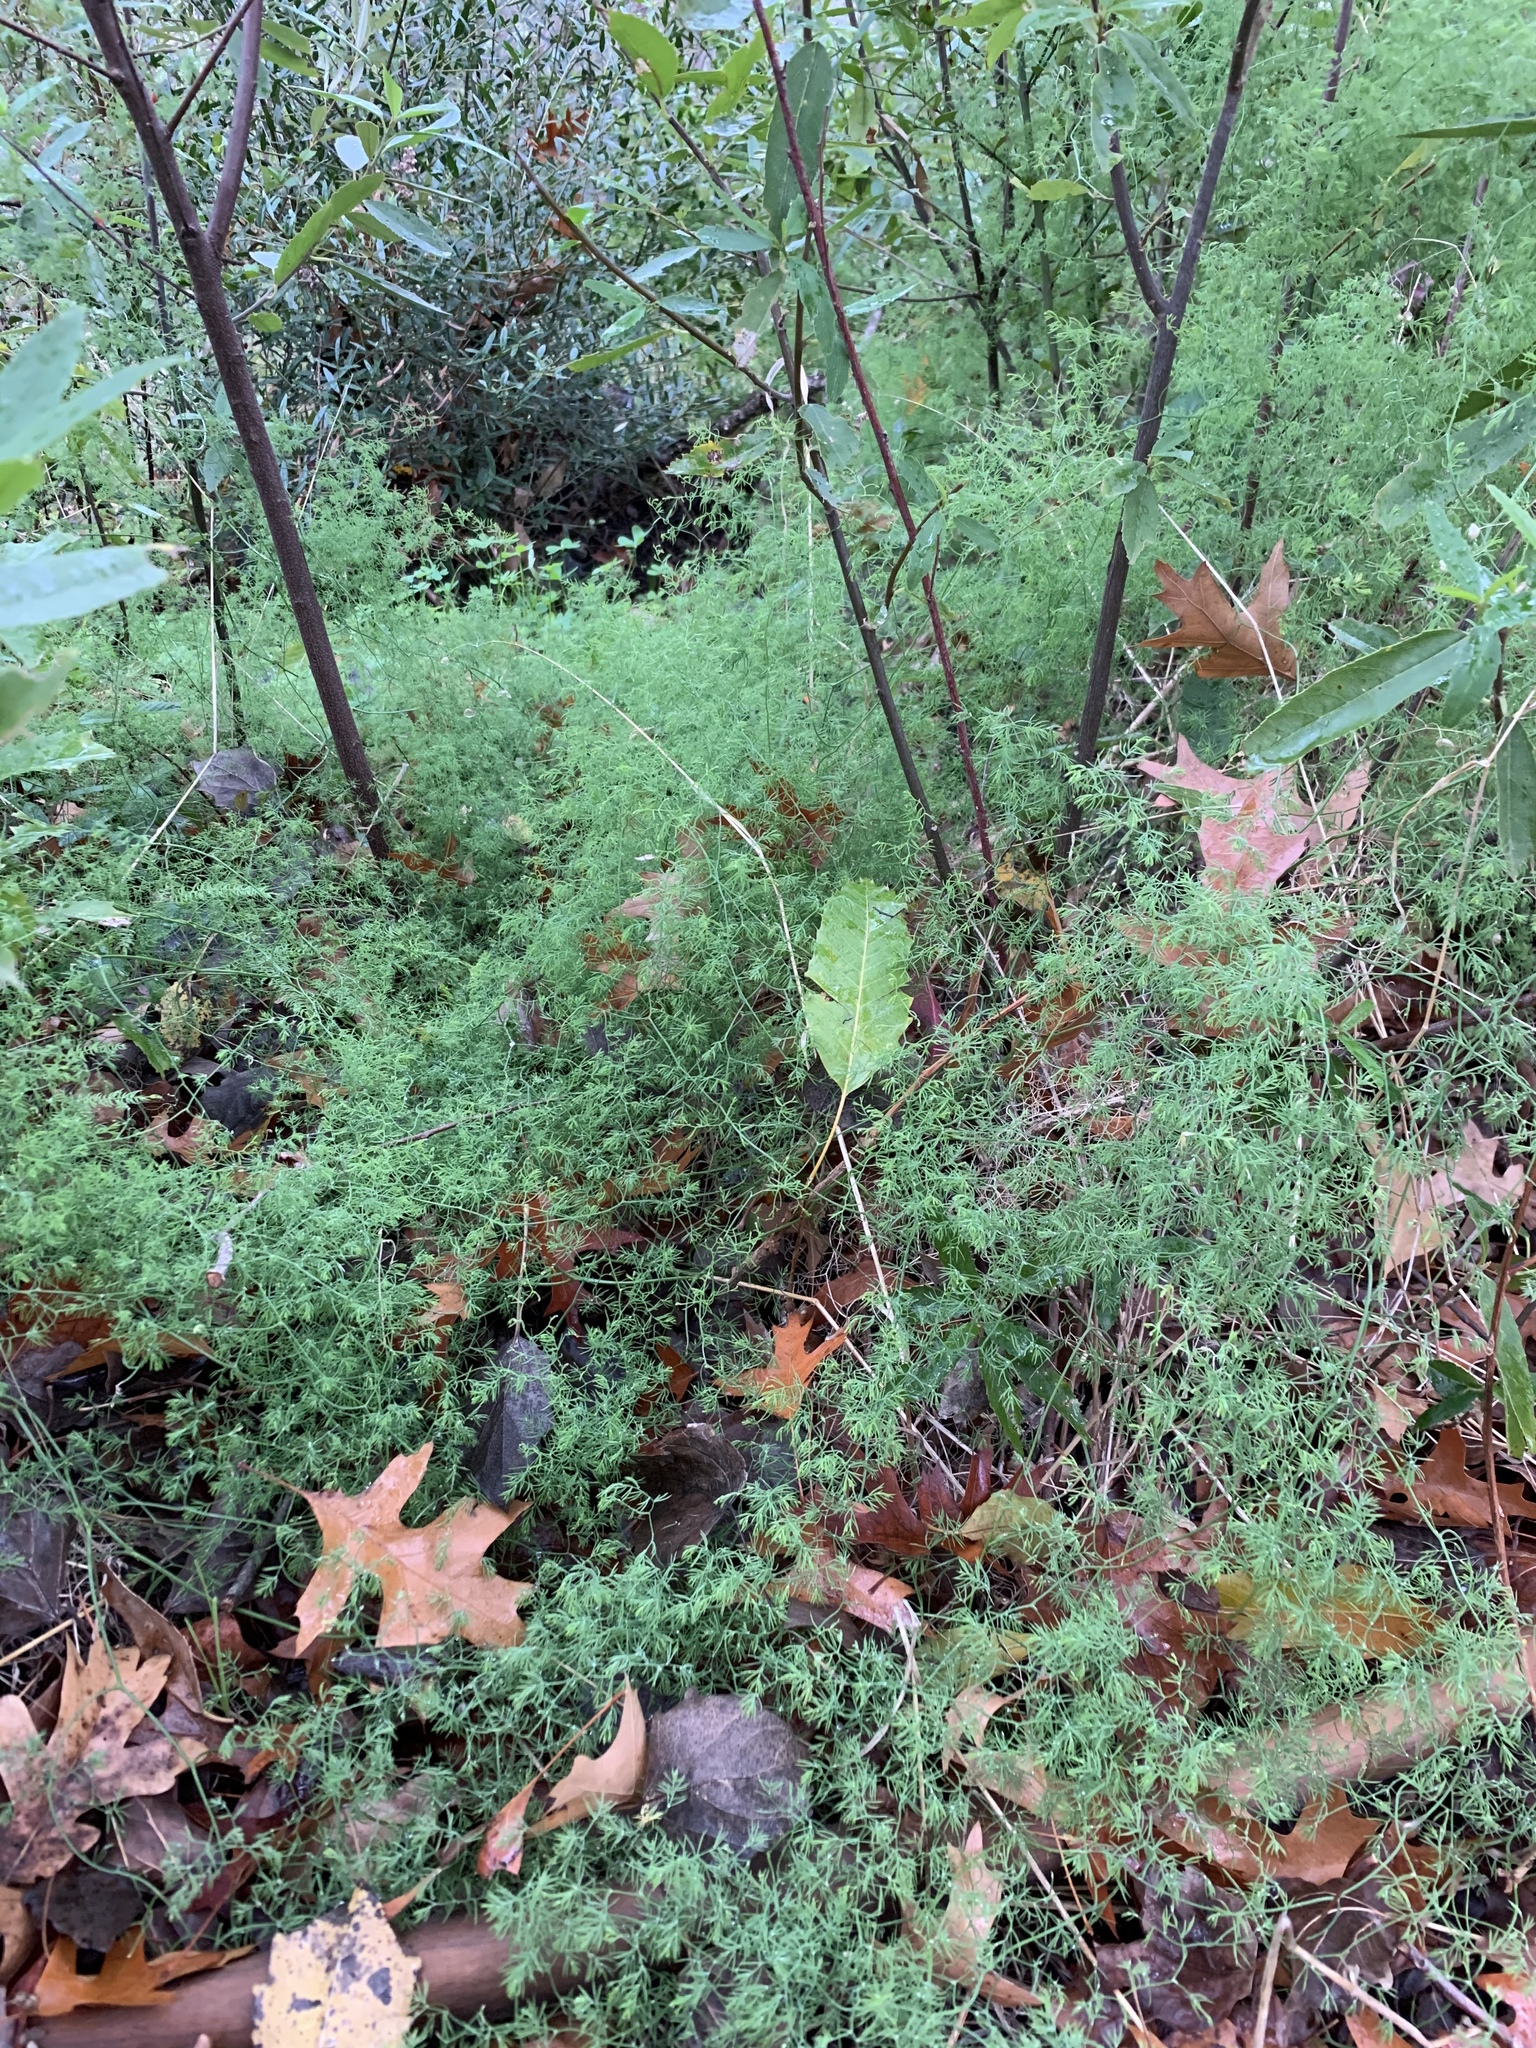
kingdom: Plantae
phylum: Tracheophyta
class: Liliopsida
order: Asparagales
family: Asparagaceae
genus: Asparagus
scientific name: Asparagus declinatus
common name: Bridal-creeper
